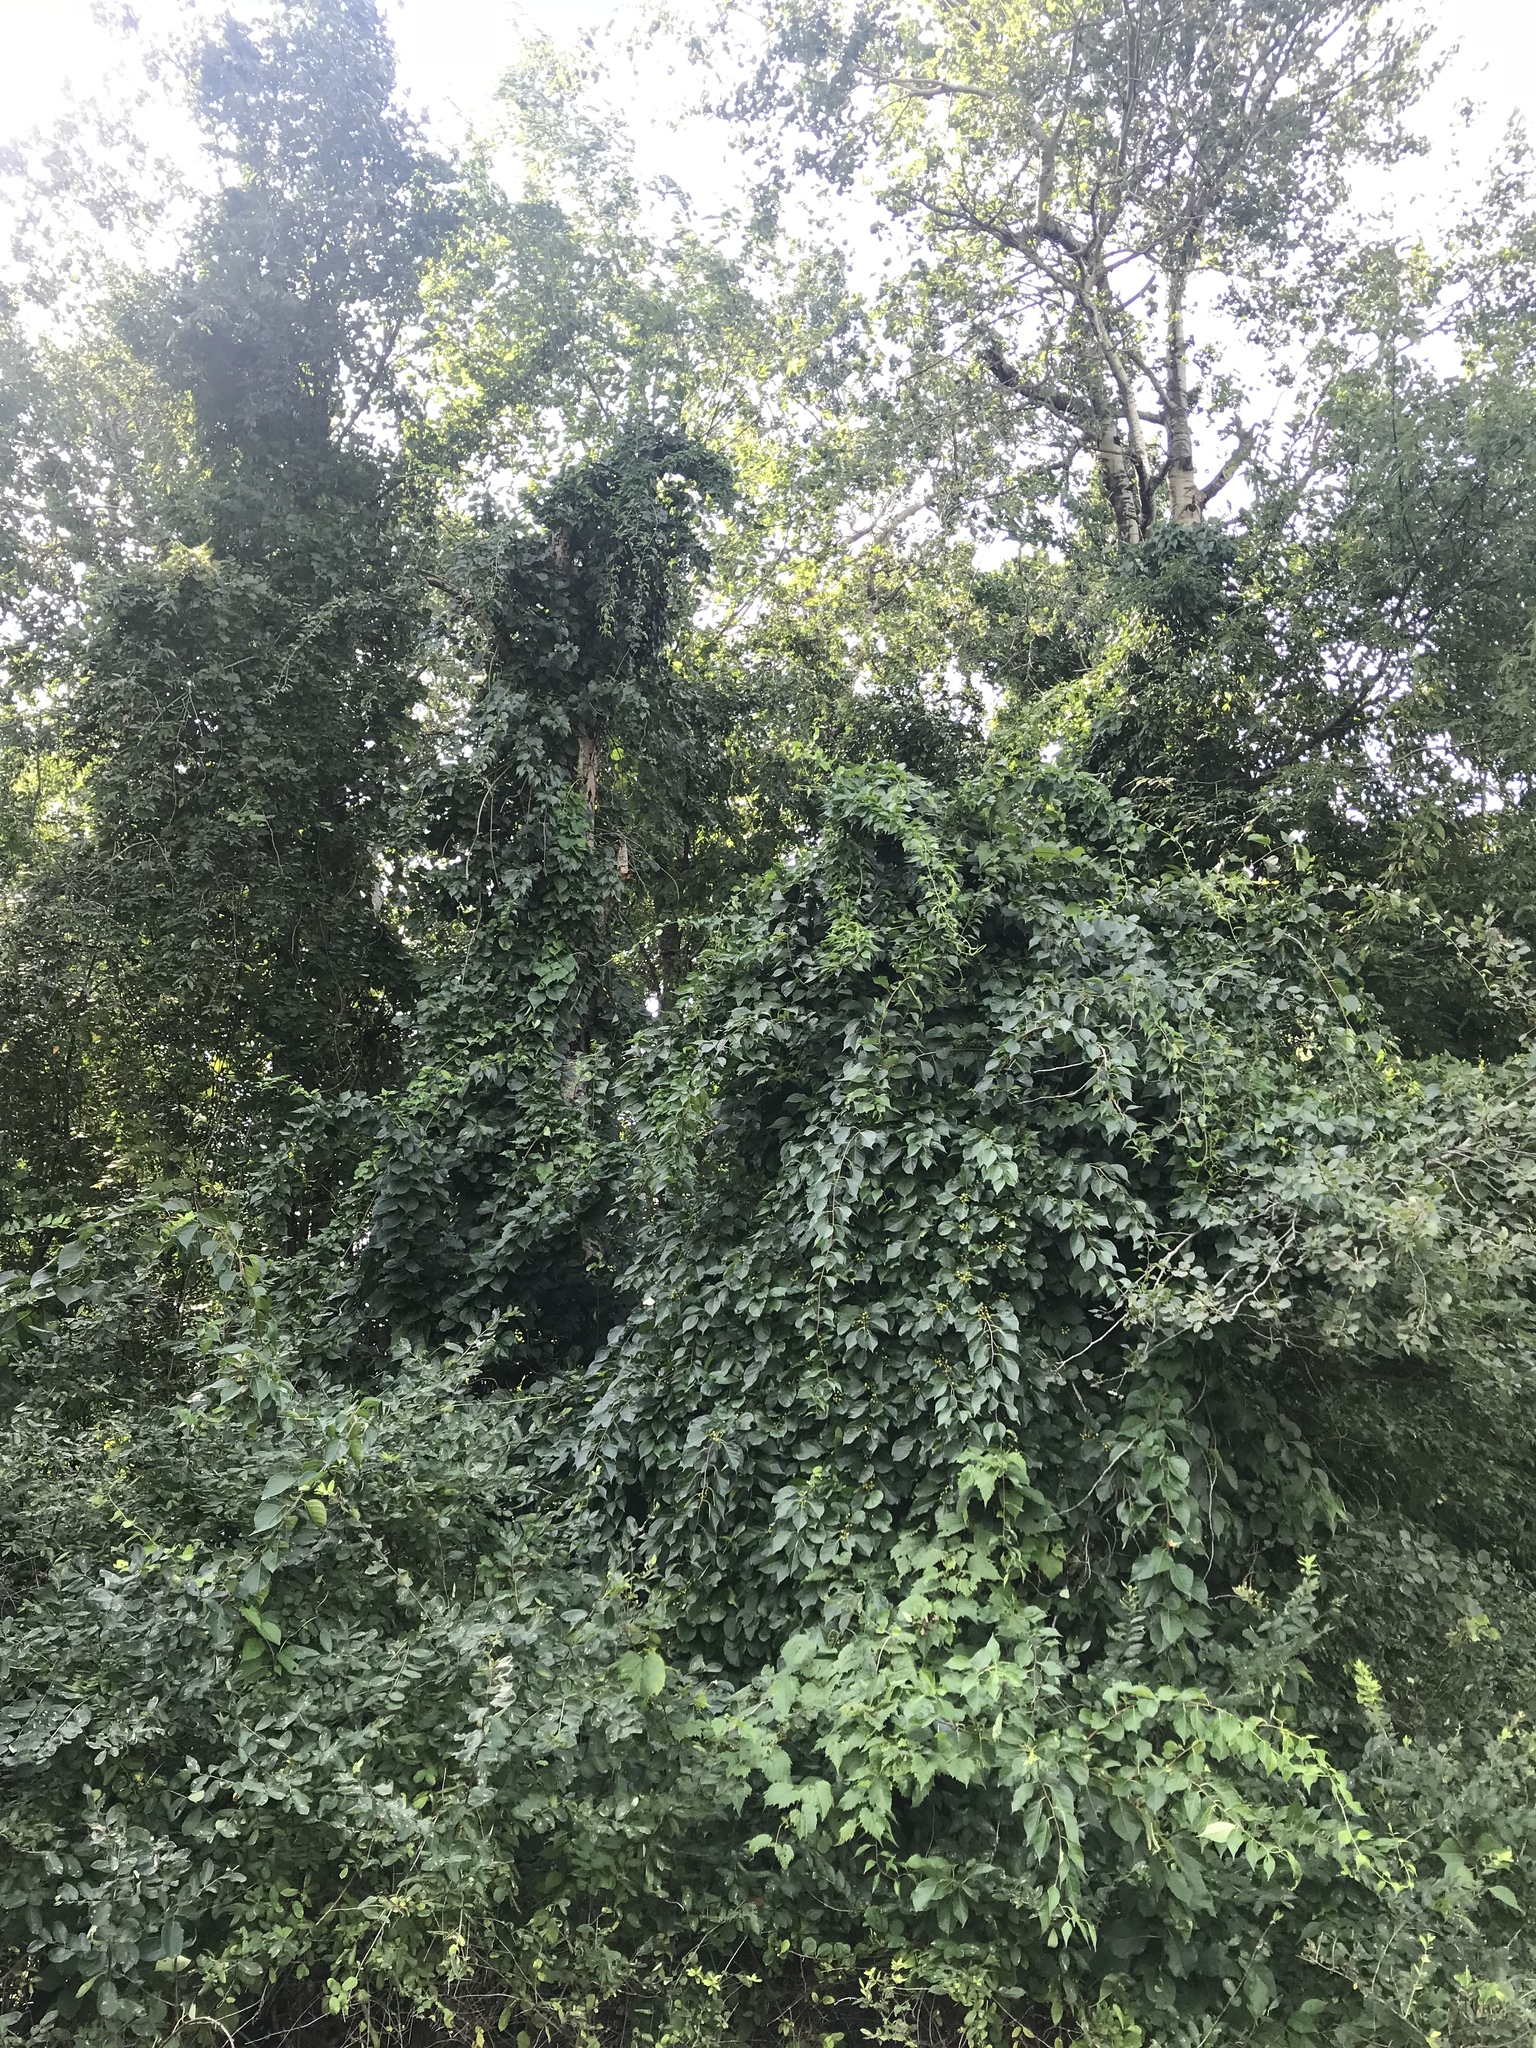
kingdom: Plantae
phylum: Tracheophyta
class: Magnoliopsida
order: Celastrales
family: Celastraceae
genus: Celastrus
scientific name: Celastrus orbiculatus
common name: Oriental bittersweet
